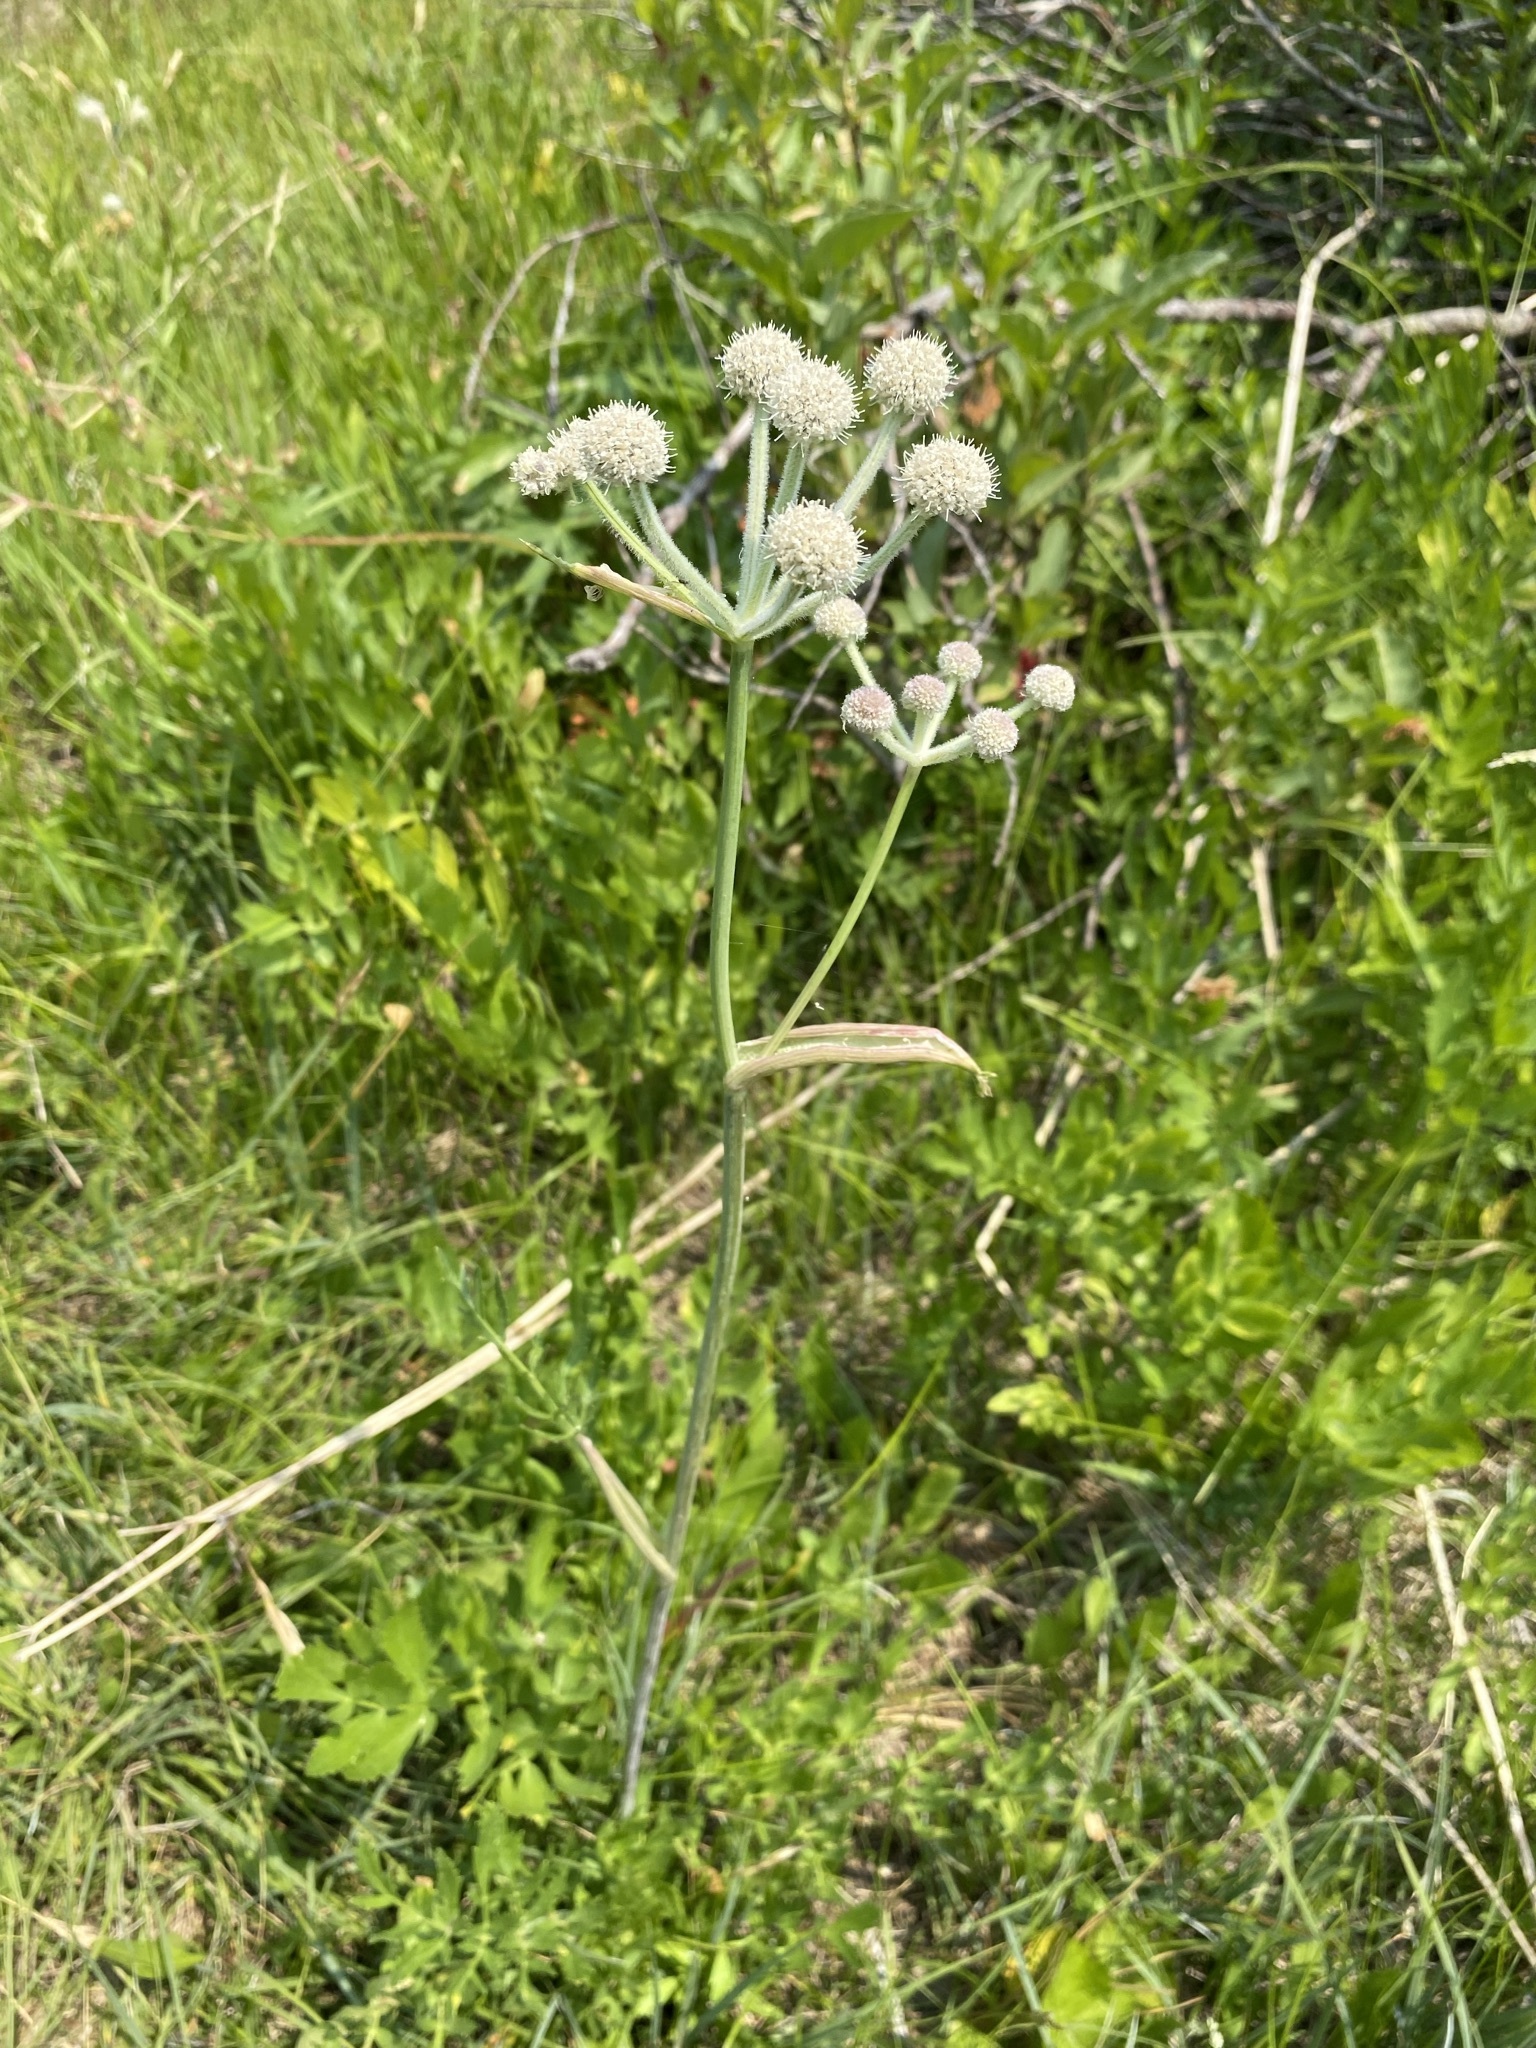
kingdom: Plantae
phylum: Tracheophyta
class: Magnoliopsida
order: Apiales
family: Apiaceae
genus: Angelica
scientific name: Angelica capitellata
